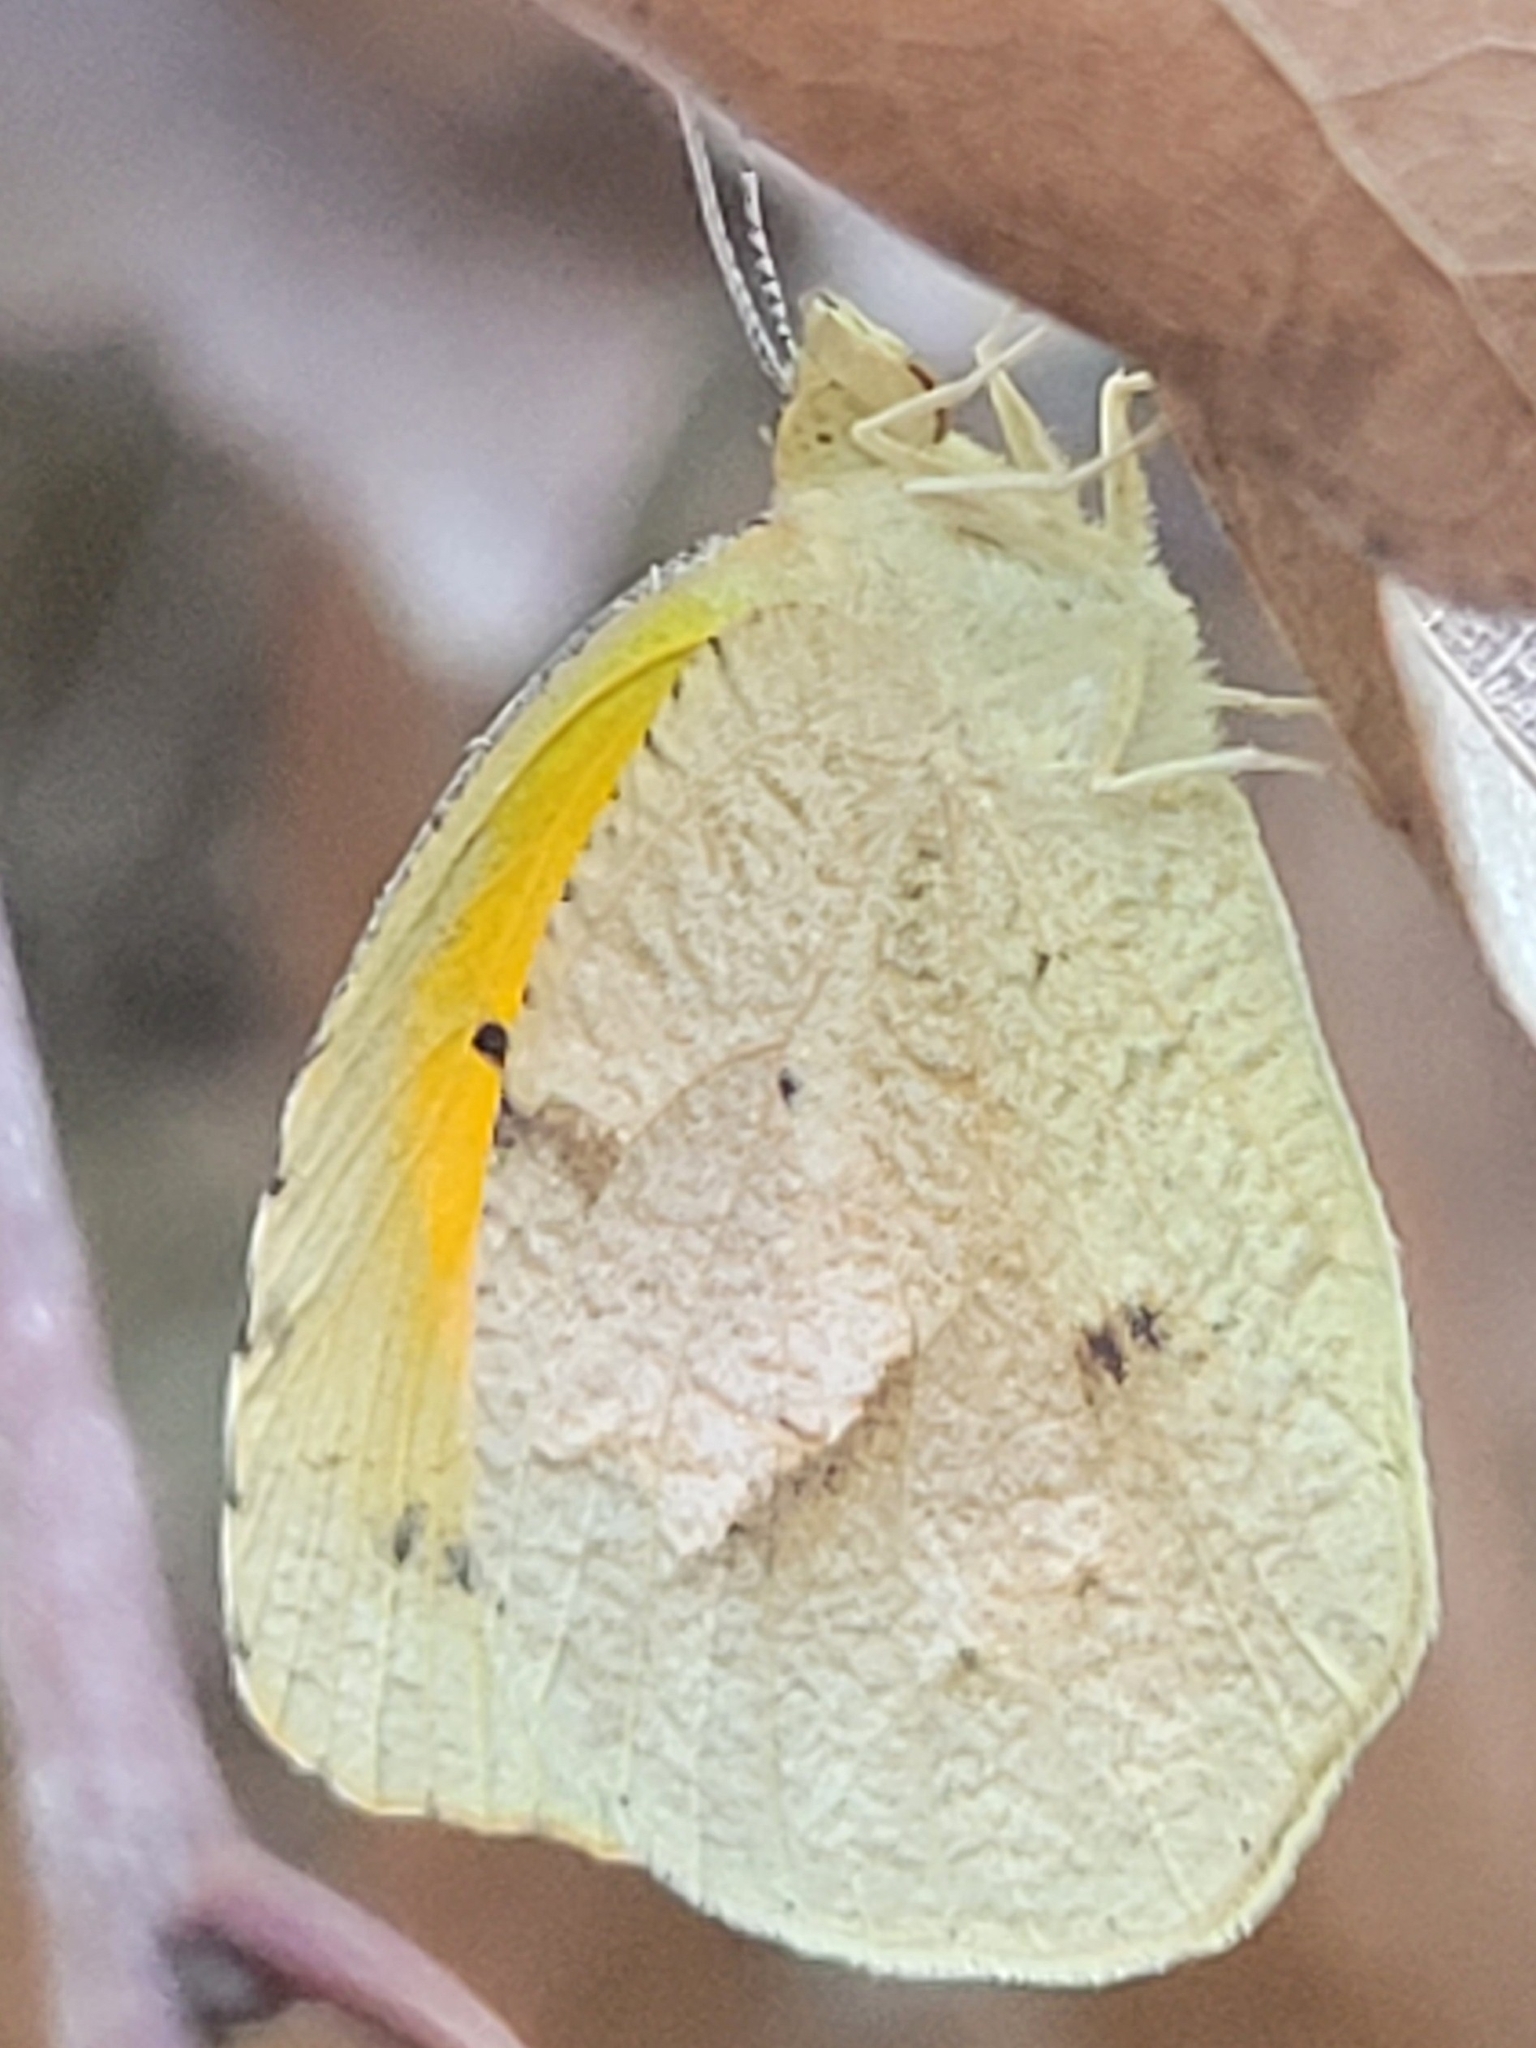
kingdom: Animalia
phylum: Arthropoda
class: Insecta
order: Lepidoptera
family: Pieridae
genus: Abaeis
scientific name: Abaeis nicippe
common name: Sleepy orange
